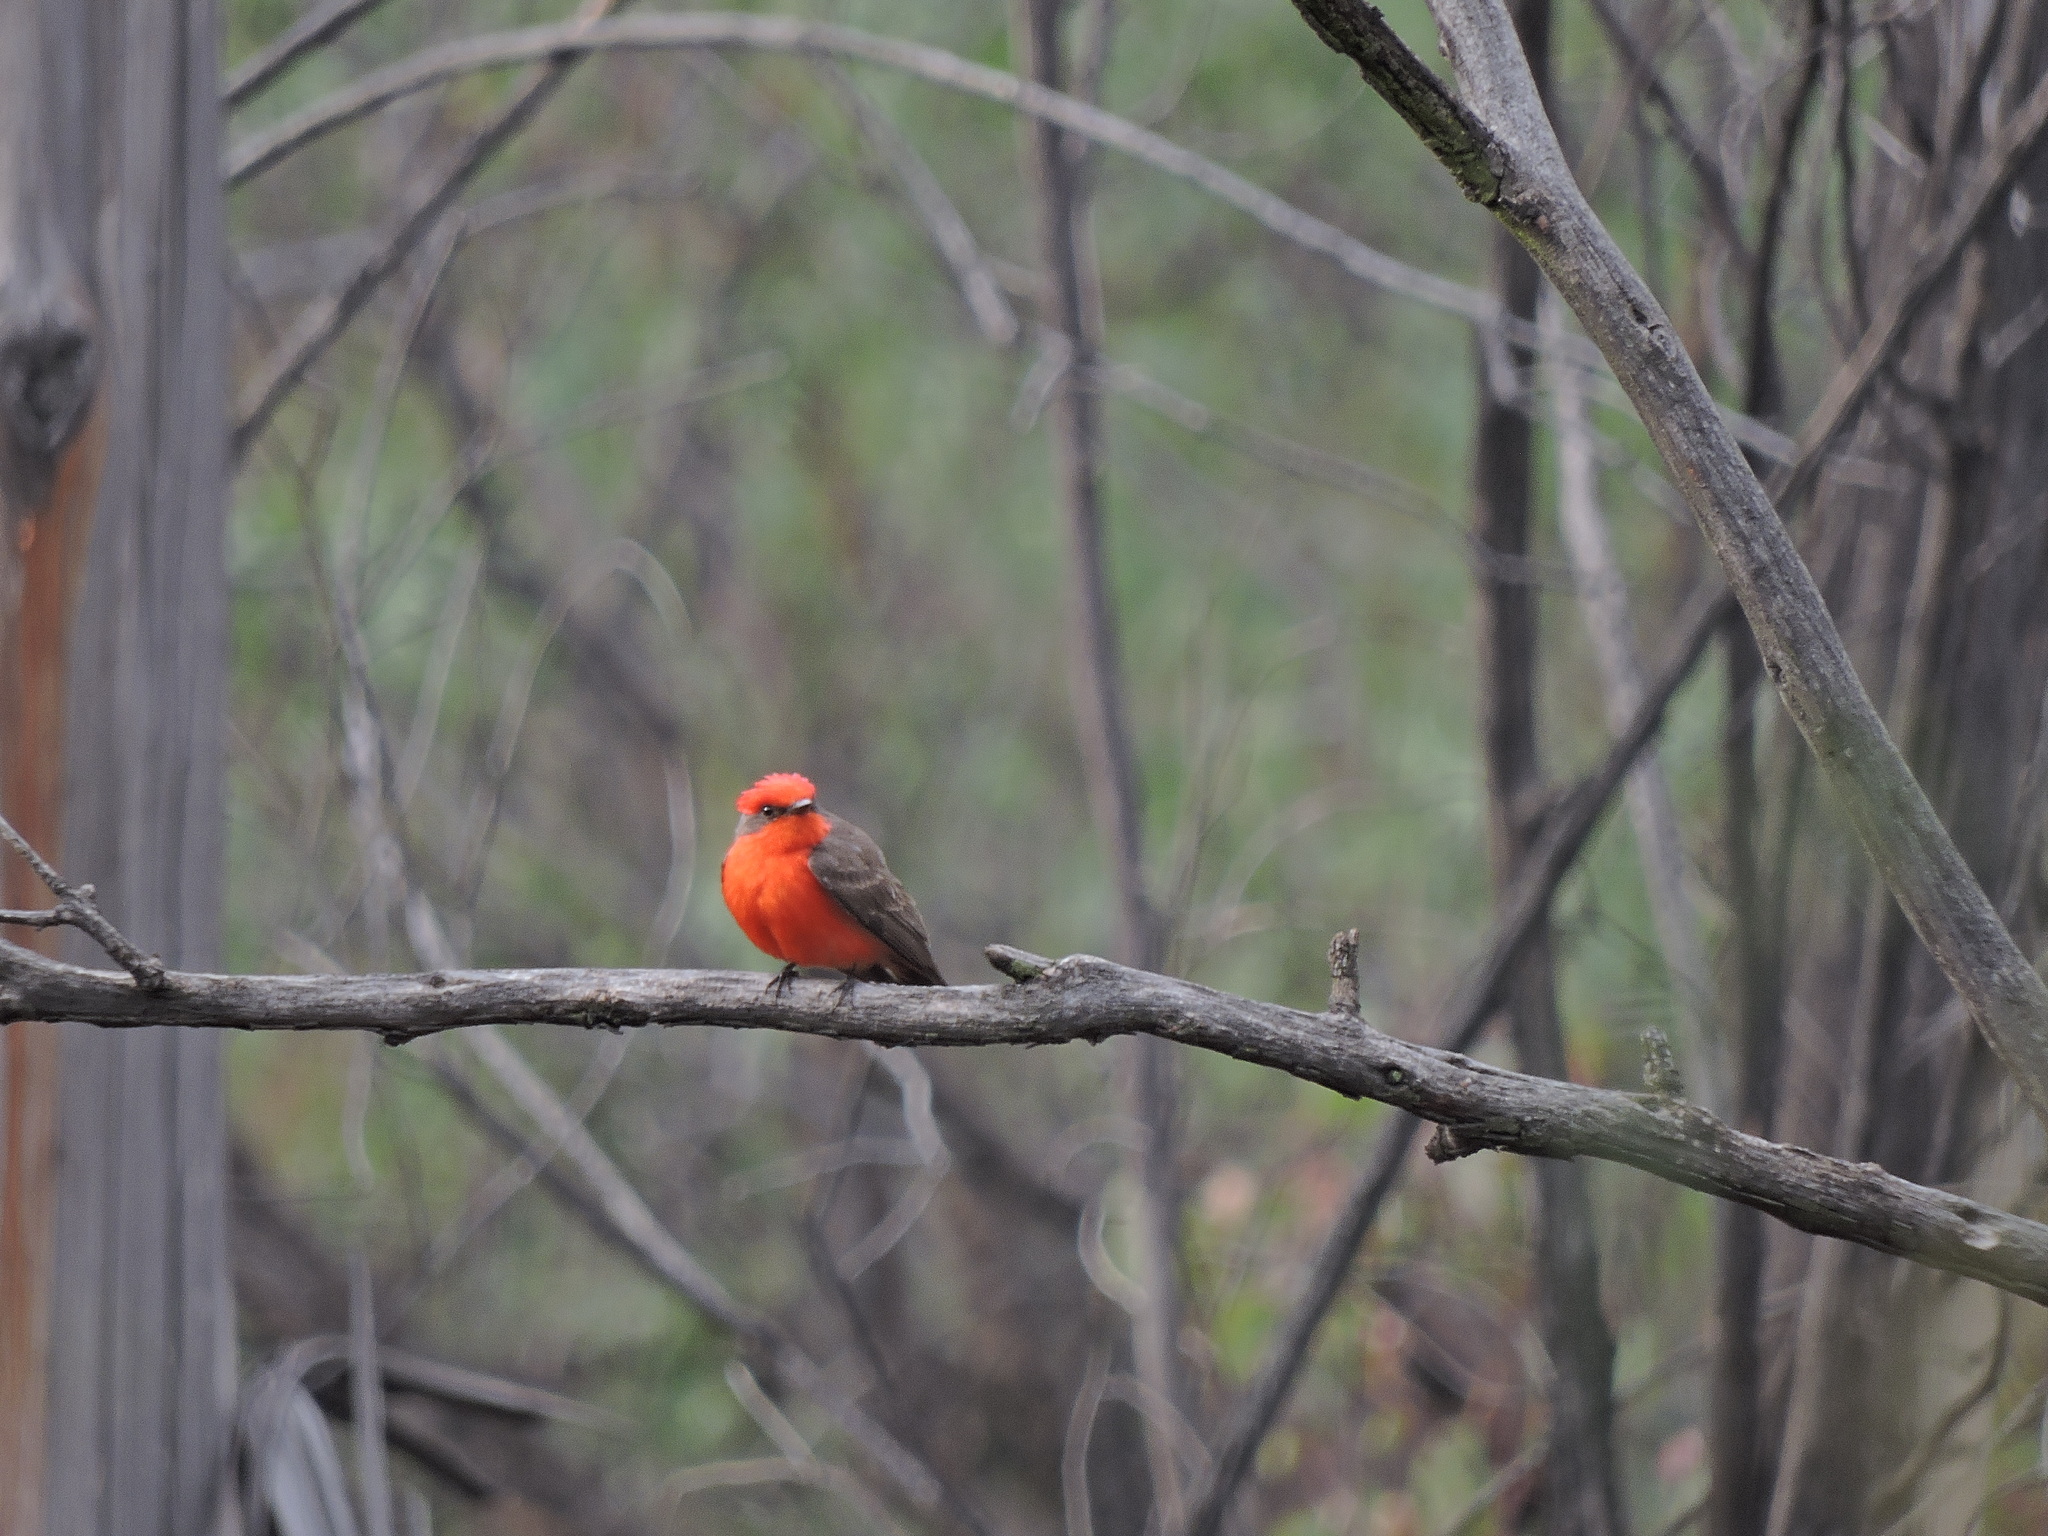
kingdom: Animalia
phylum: Chordata
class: Aves
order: Passeriformes
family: Tyrannidae
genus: Pyrocephalus
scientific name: Pyrocephalus rubinus
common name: Vermilion flycatcher
